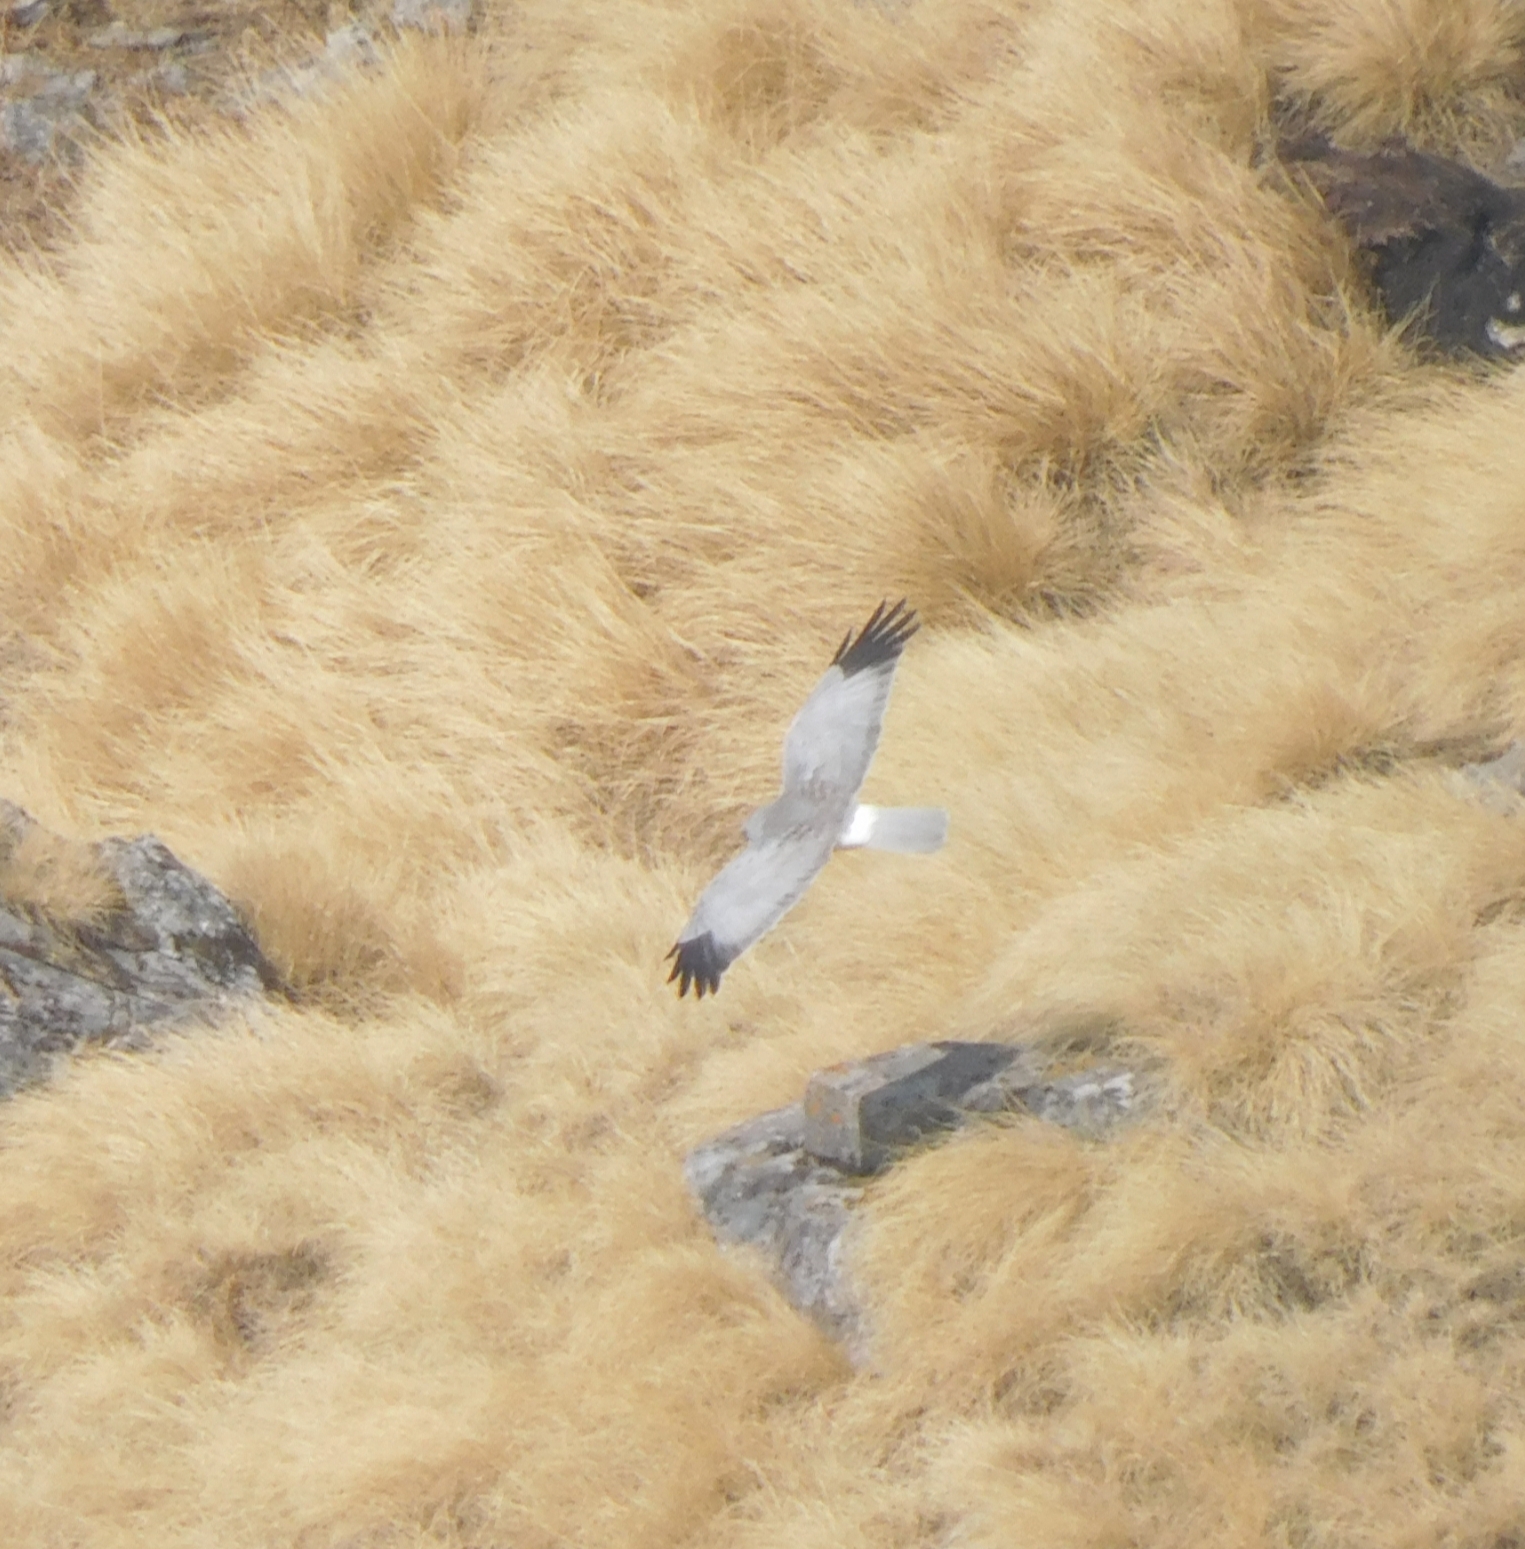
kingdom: Animalia
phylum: Chordata
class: Aves
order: Accipitriformes
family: Accipitridae
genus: Circus
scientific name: Circus cyaneus
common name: Hen harrier
